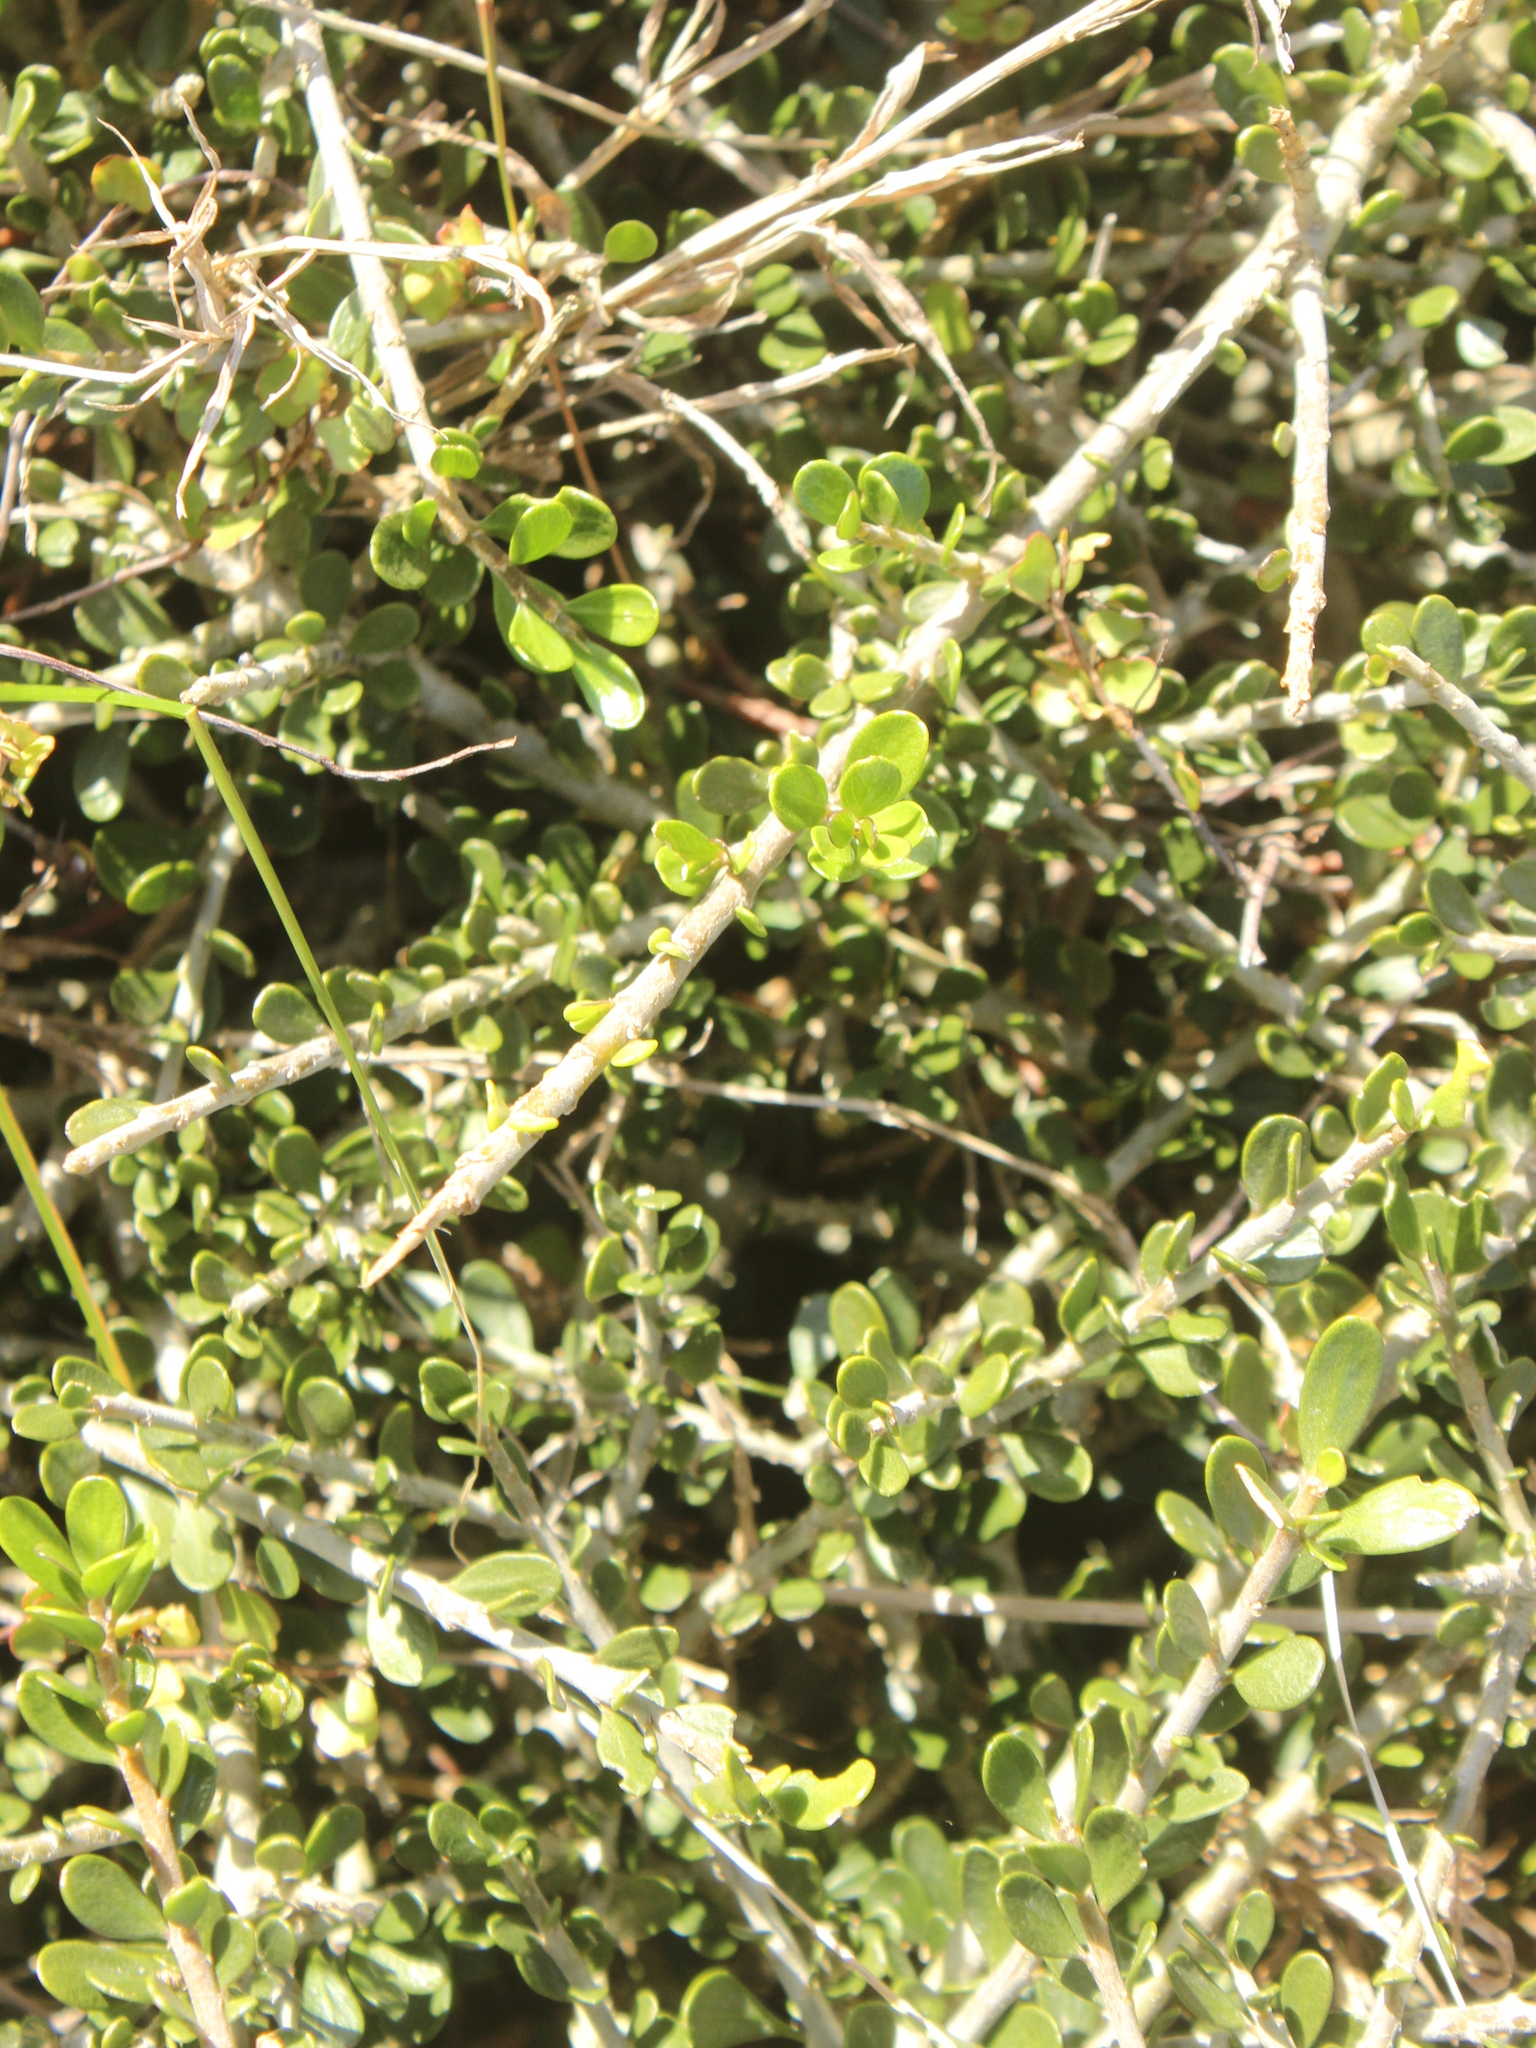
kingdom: Plantae
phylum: Tracheophyta
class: Magnoliopsida
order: Malpighiales
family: Violaceae
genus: Melicytus
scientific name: Melicytus crassifolius
